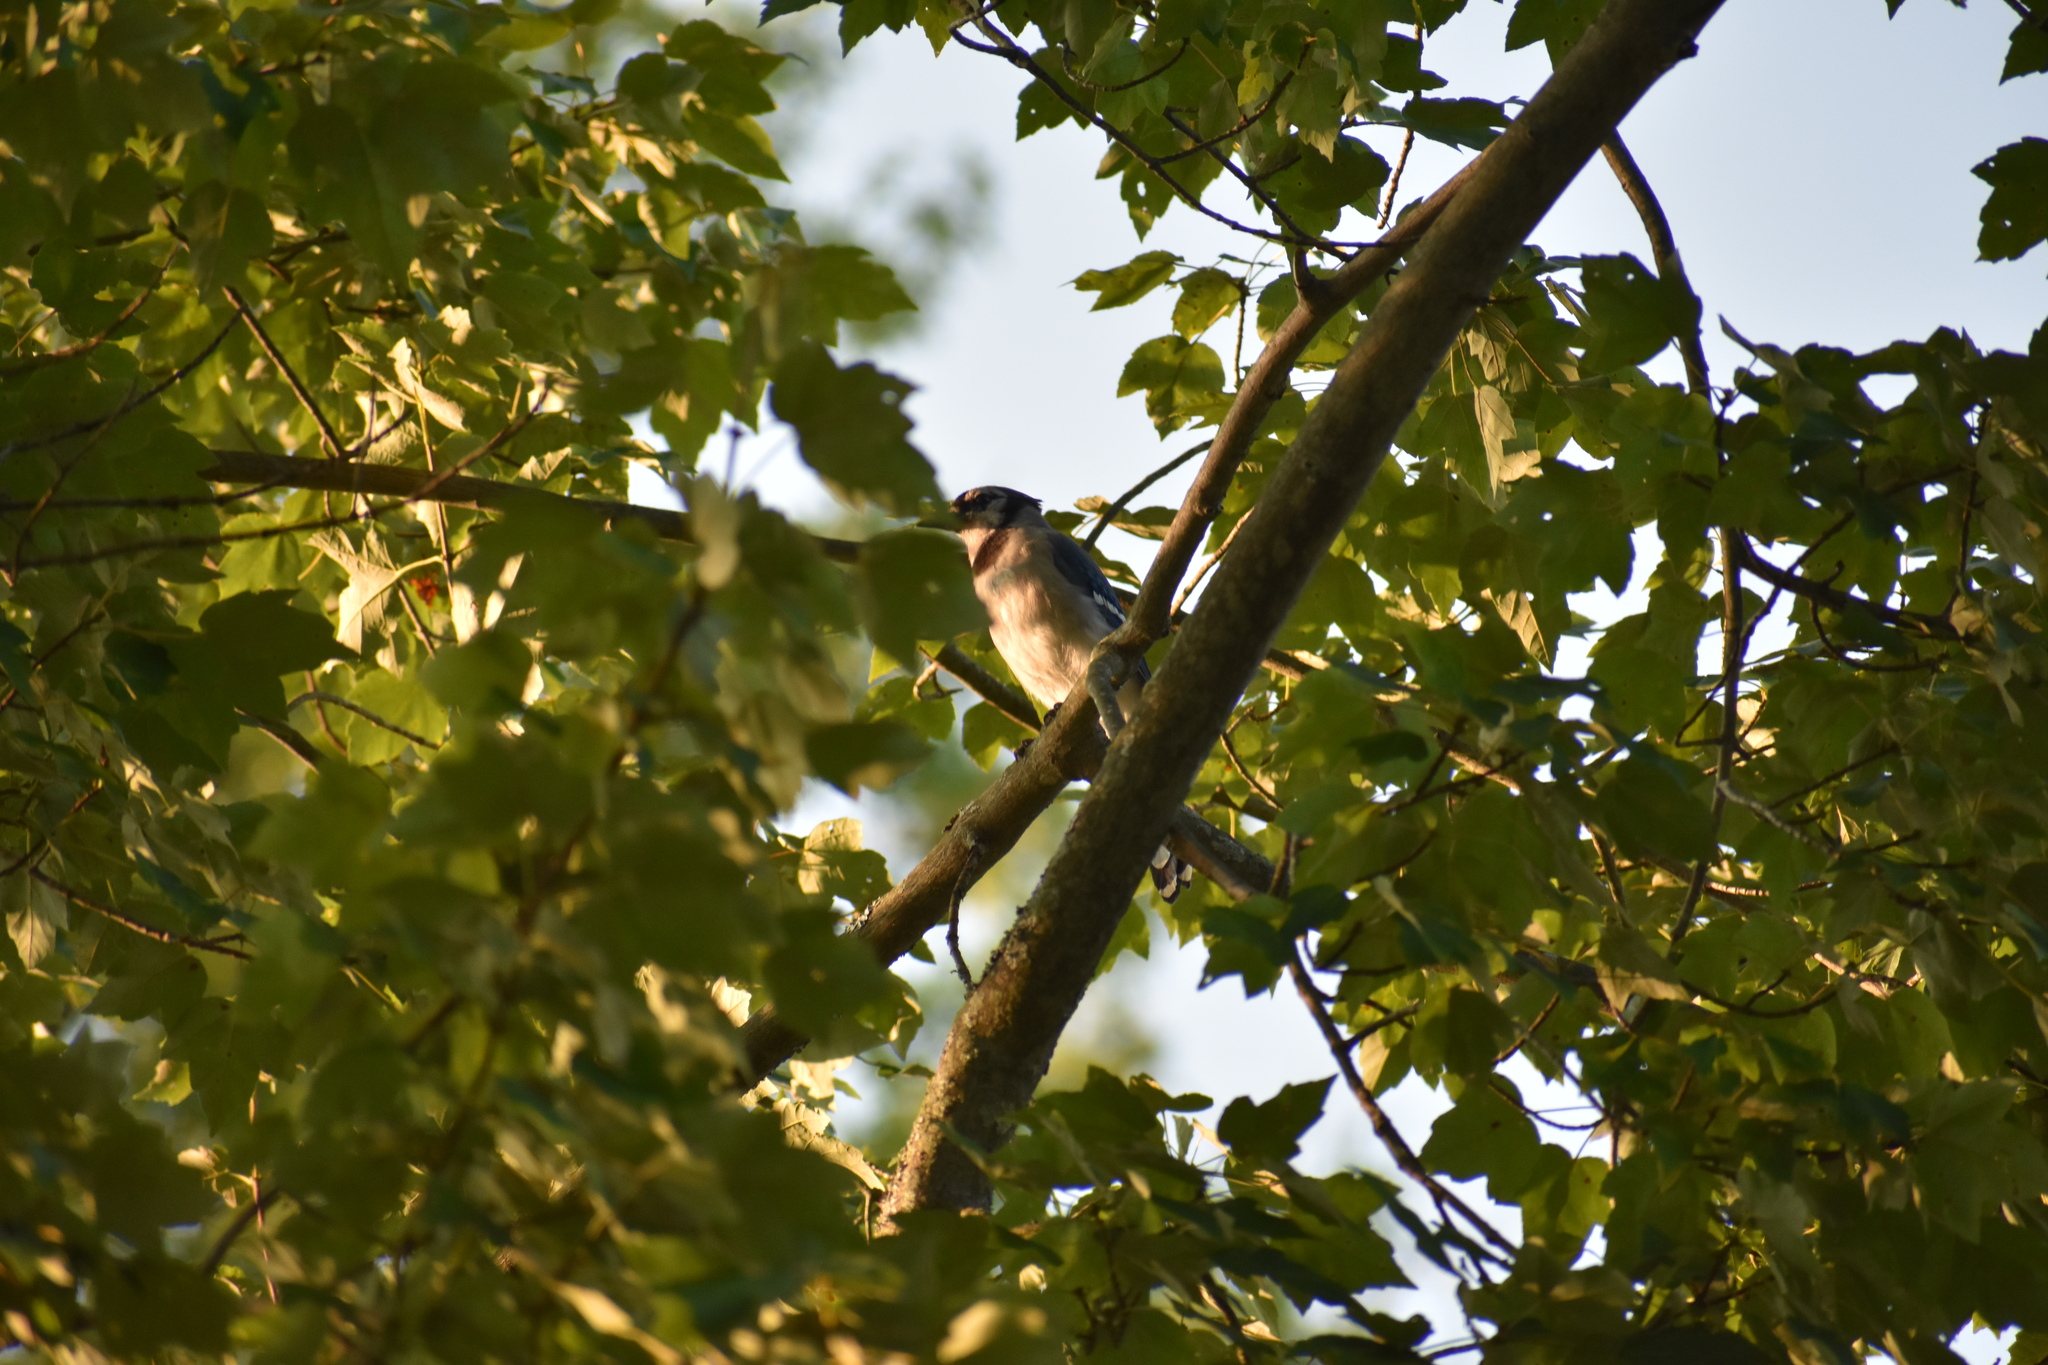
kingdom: Animalia
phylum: Chordata
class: Aves
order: Passeriformes
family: Corvidae
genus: Cyanocitta
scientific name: Cyanocitta cristata
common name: Blue jay
